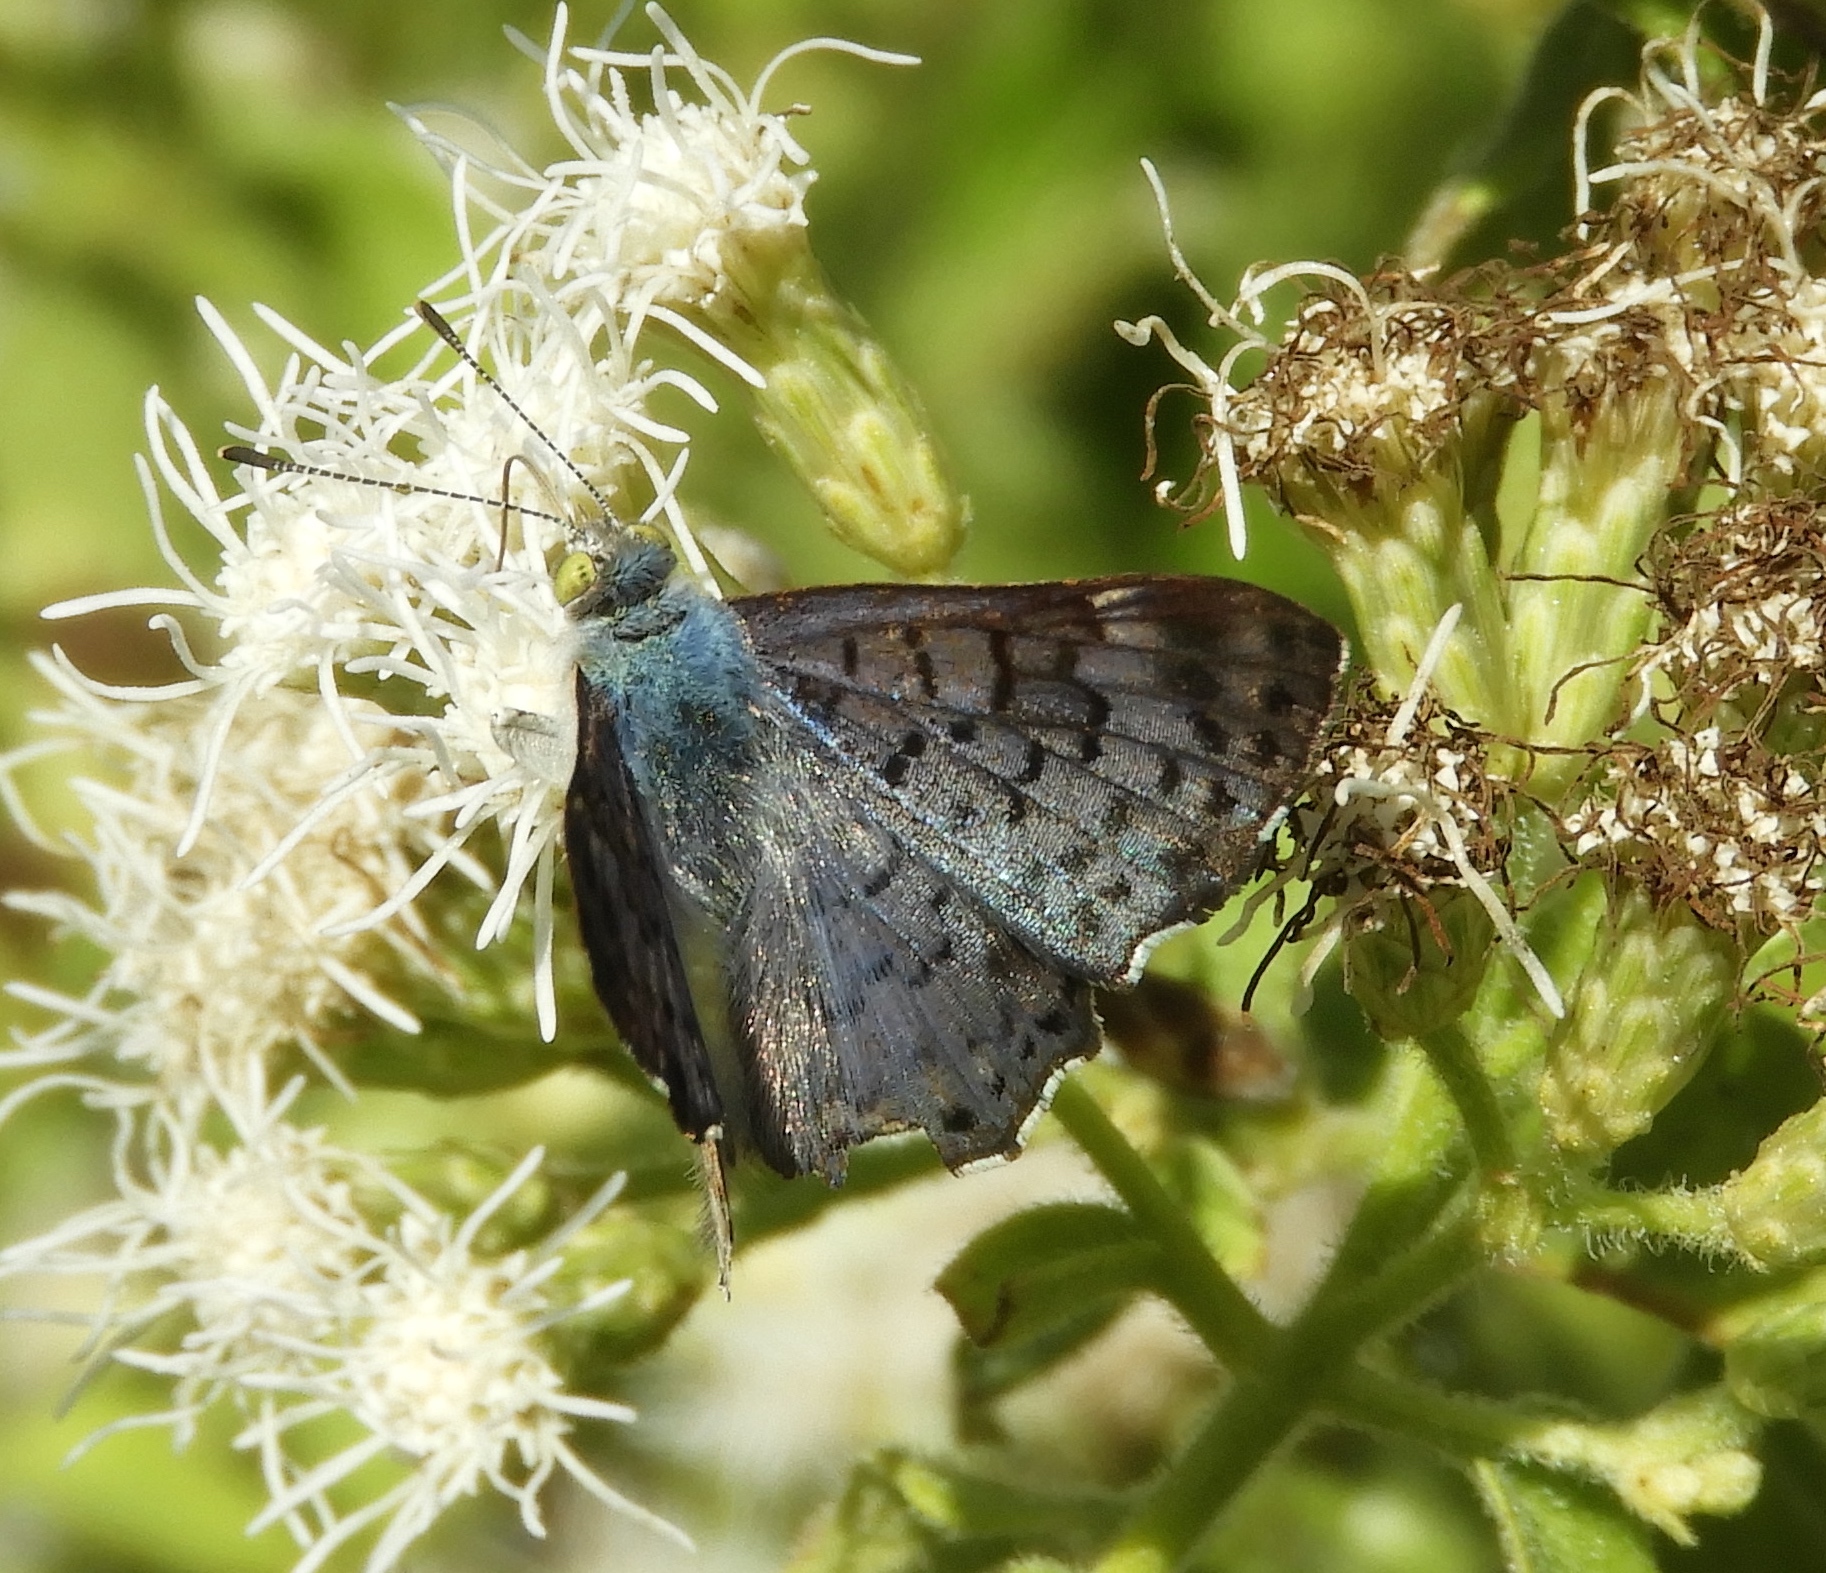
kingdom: Animalia
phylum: Arthropoda
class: Insecta
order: Lepidoptera
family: Riodinidae
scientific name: Riodinidae
